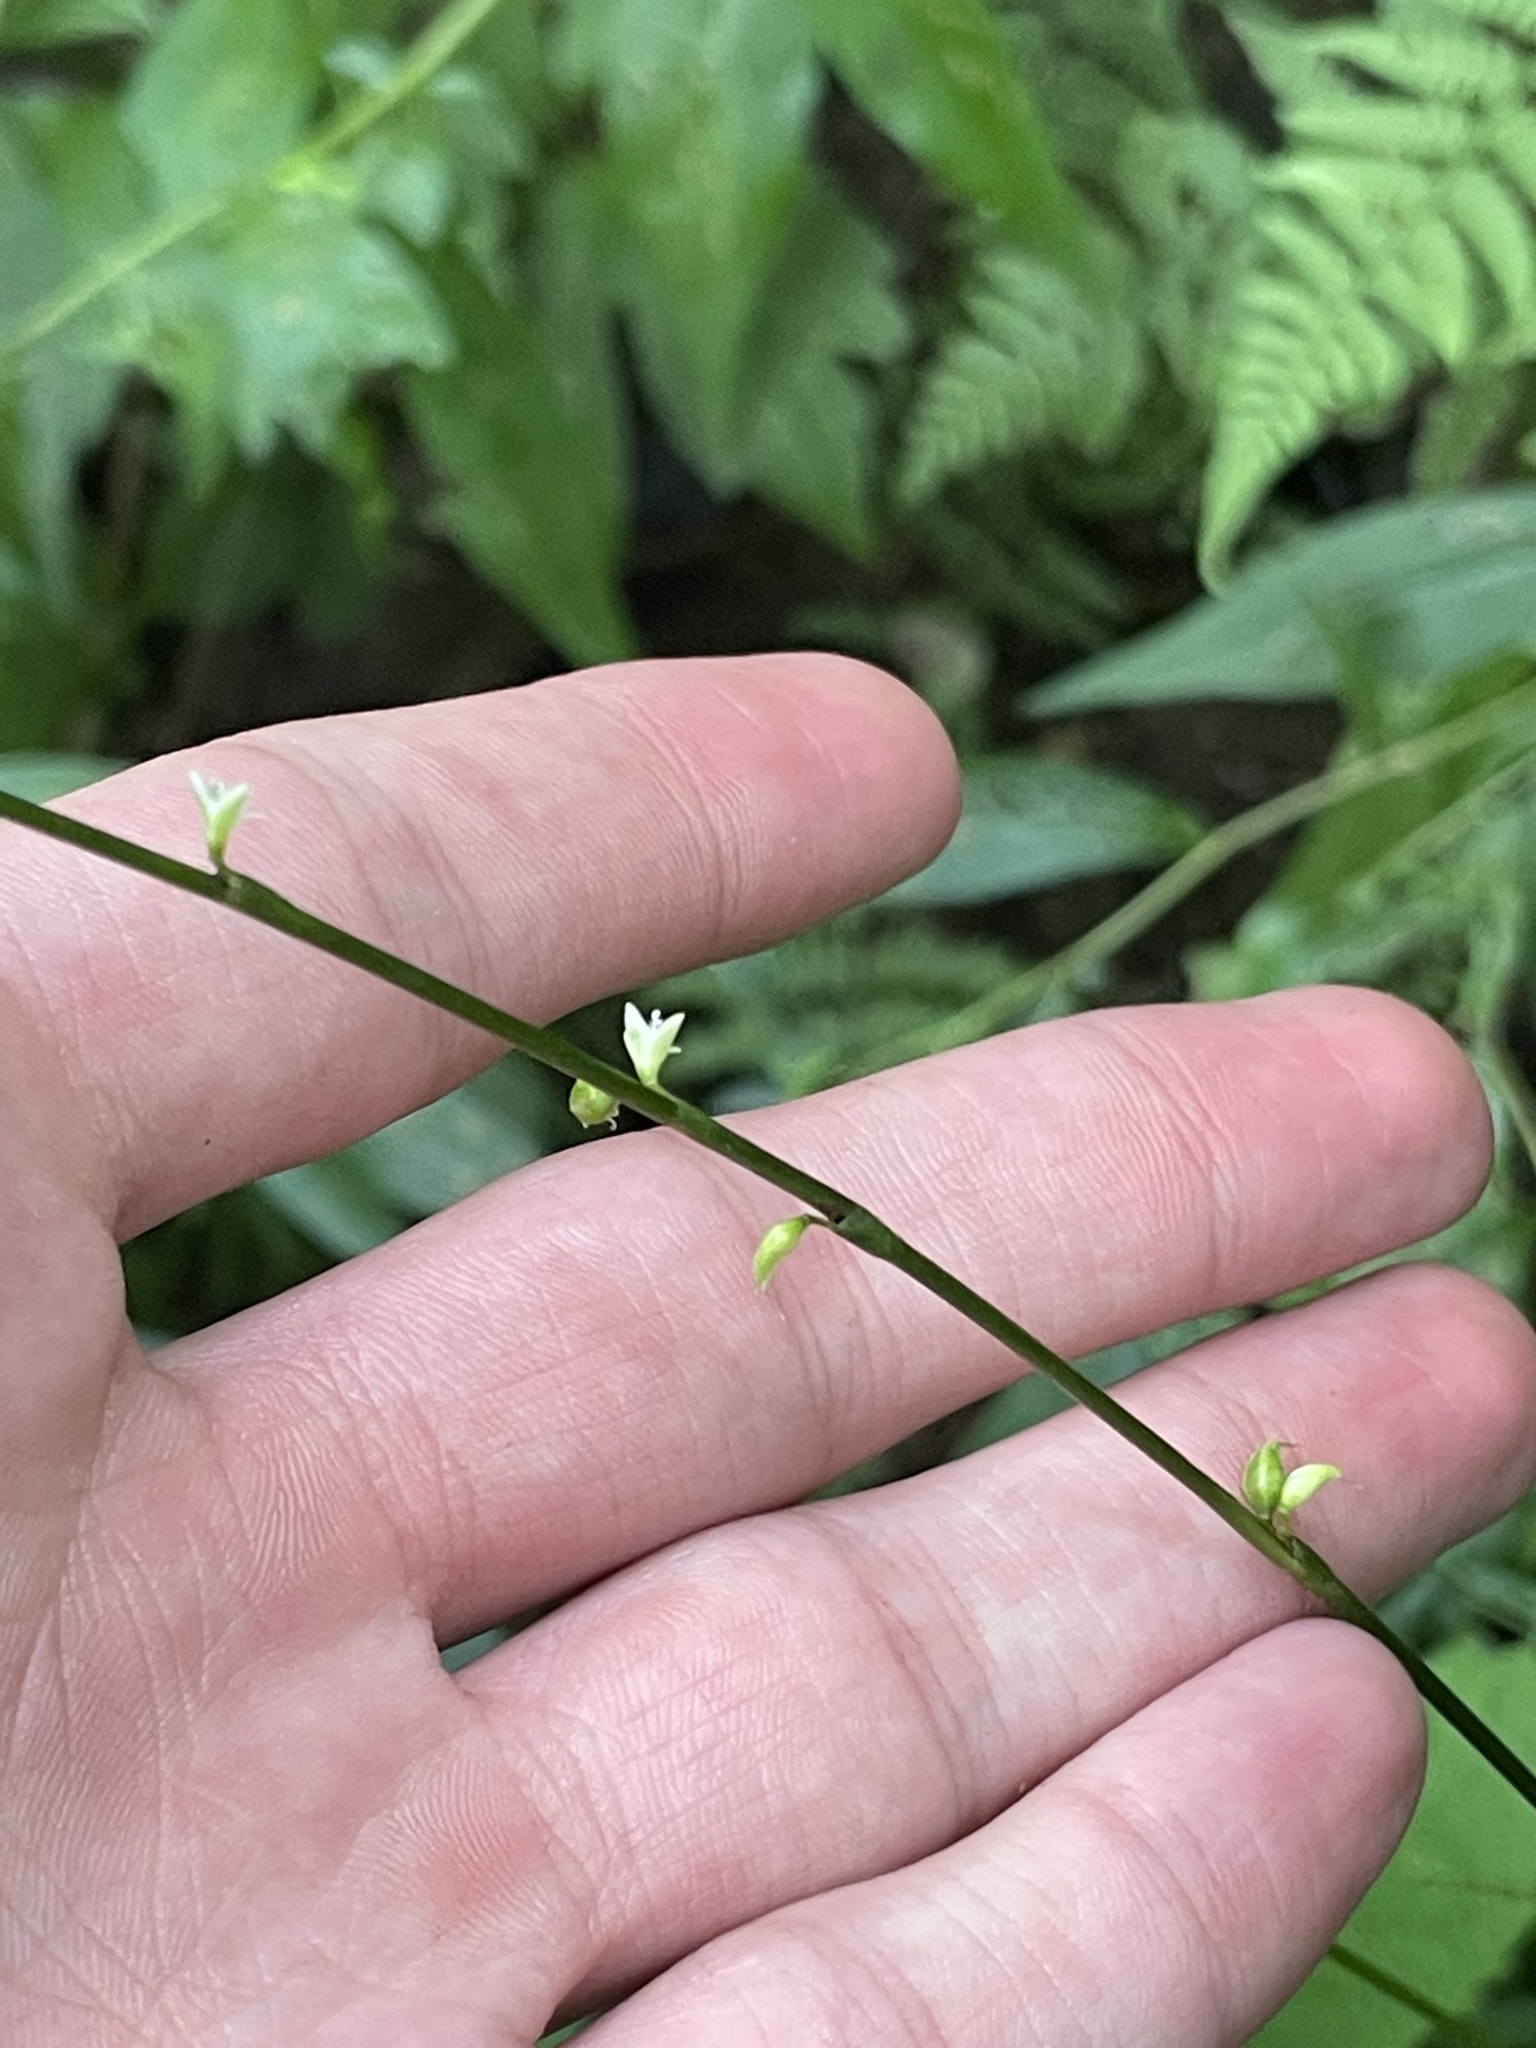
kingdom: Plantae
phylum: Tracheophyta
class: Magnoliopsida
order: Caryophyllales
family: Polygonaceae
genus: Persicaria
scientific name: Persicaria virginiana
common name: Jumpseed
